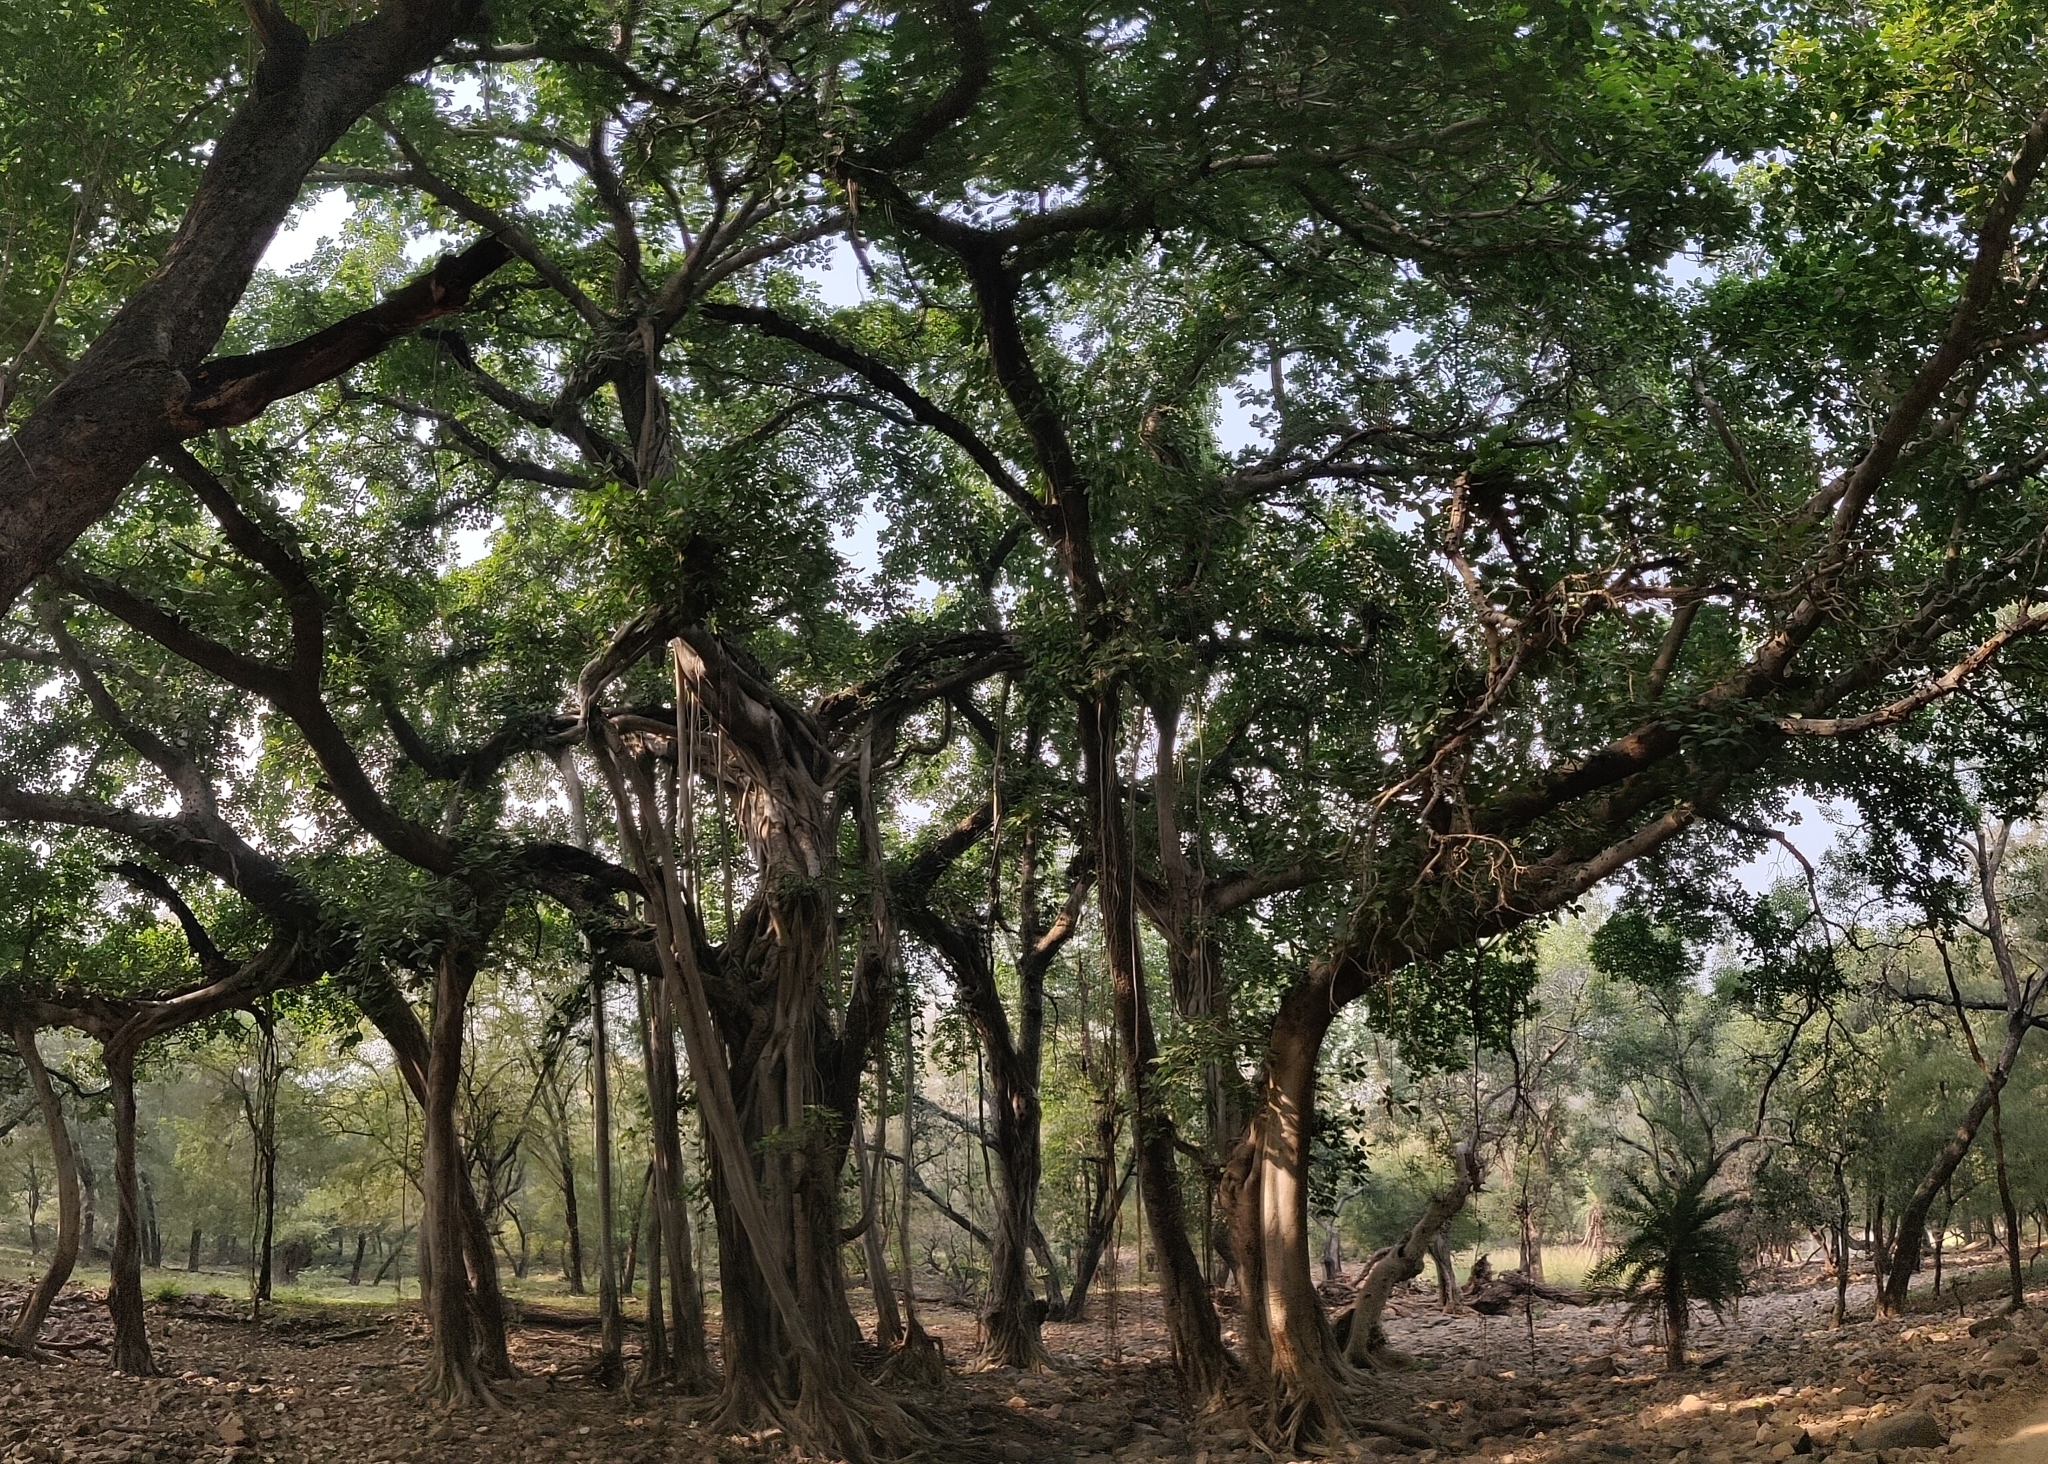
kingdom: Plantae
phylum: Tracheophyta
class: Magnoliopsida
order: Rosales
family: Moraceae
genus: Ficus
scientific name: Ficus benghalensis
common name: Indian banyan
